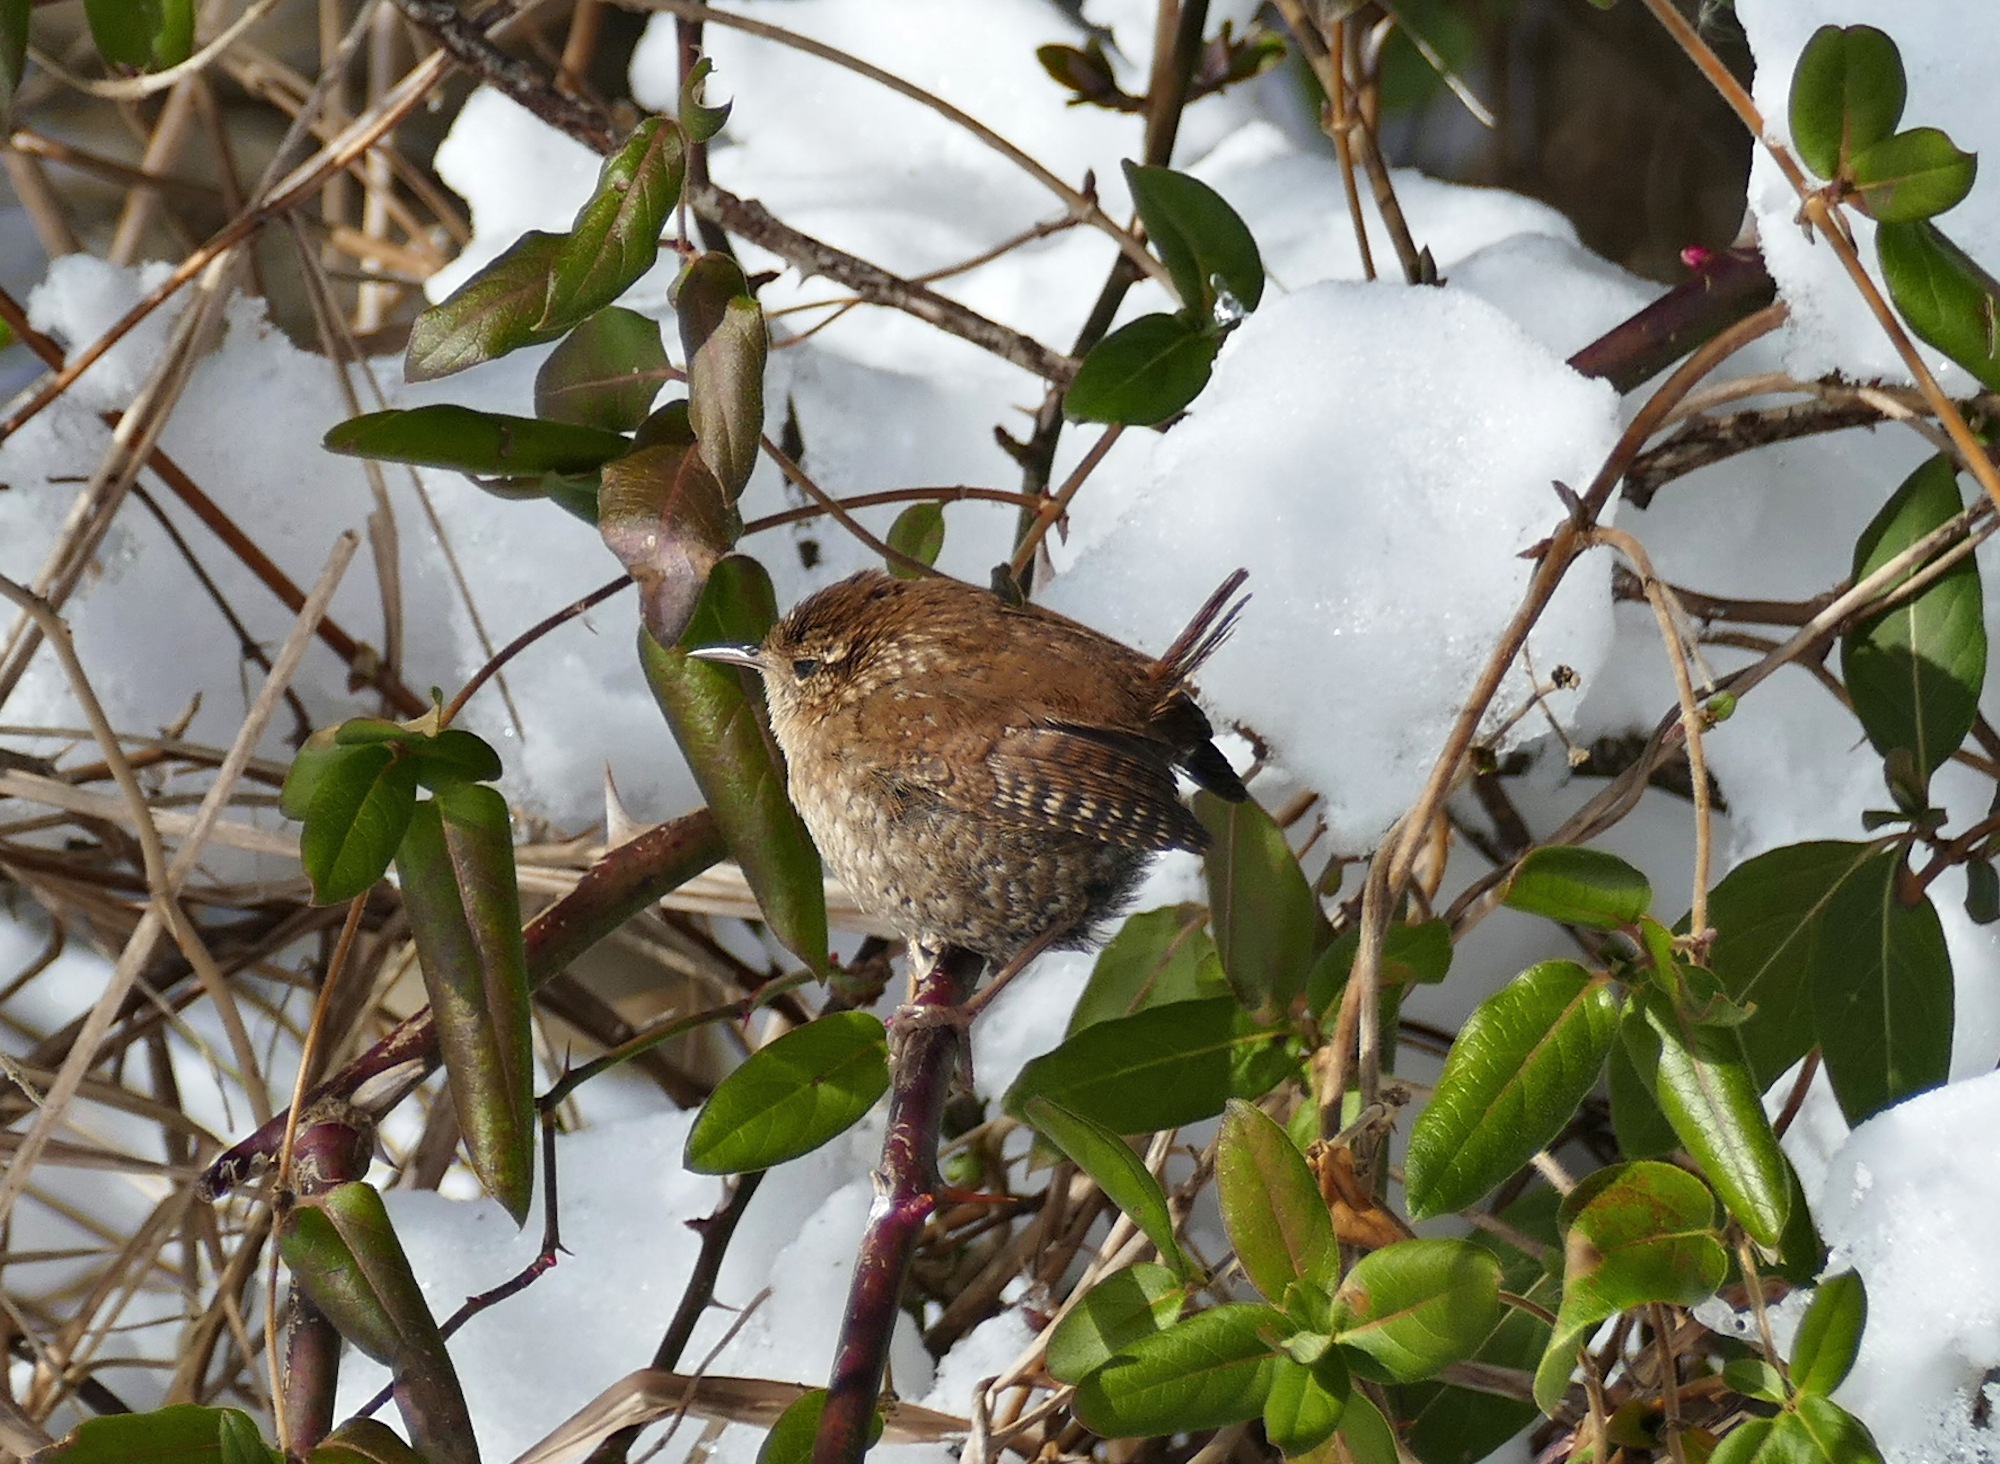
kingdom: Animalia
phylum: Chordata
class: Aves
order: Passeriformes
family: Troglodytidae
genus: Troglodytes
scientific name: Troglodytes hiemalis
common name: Winter wren
